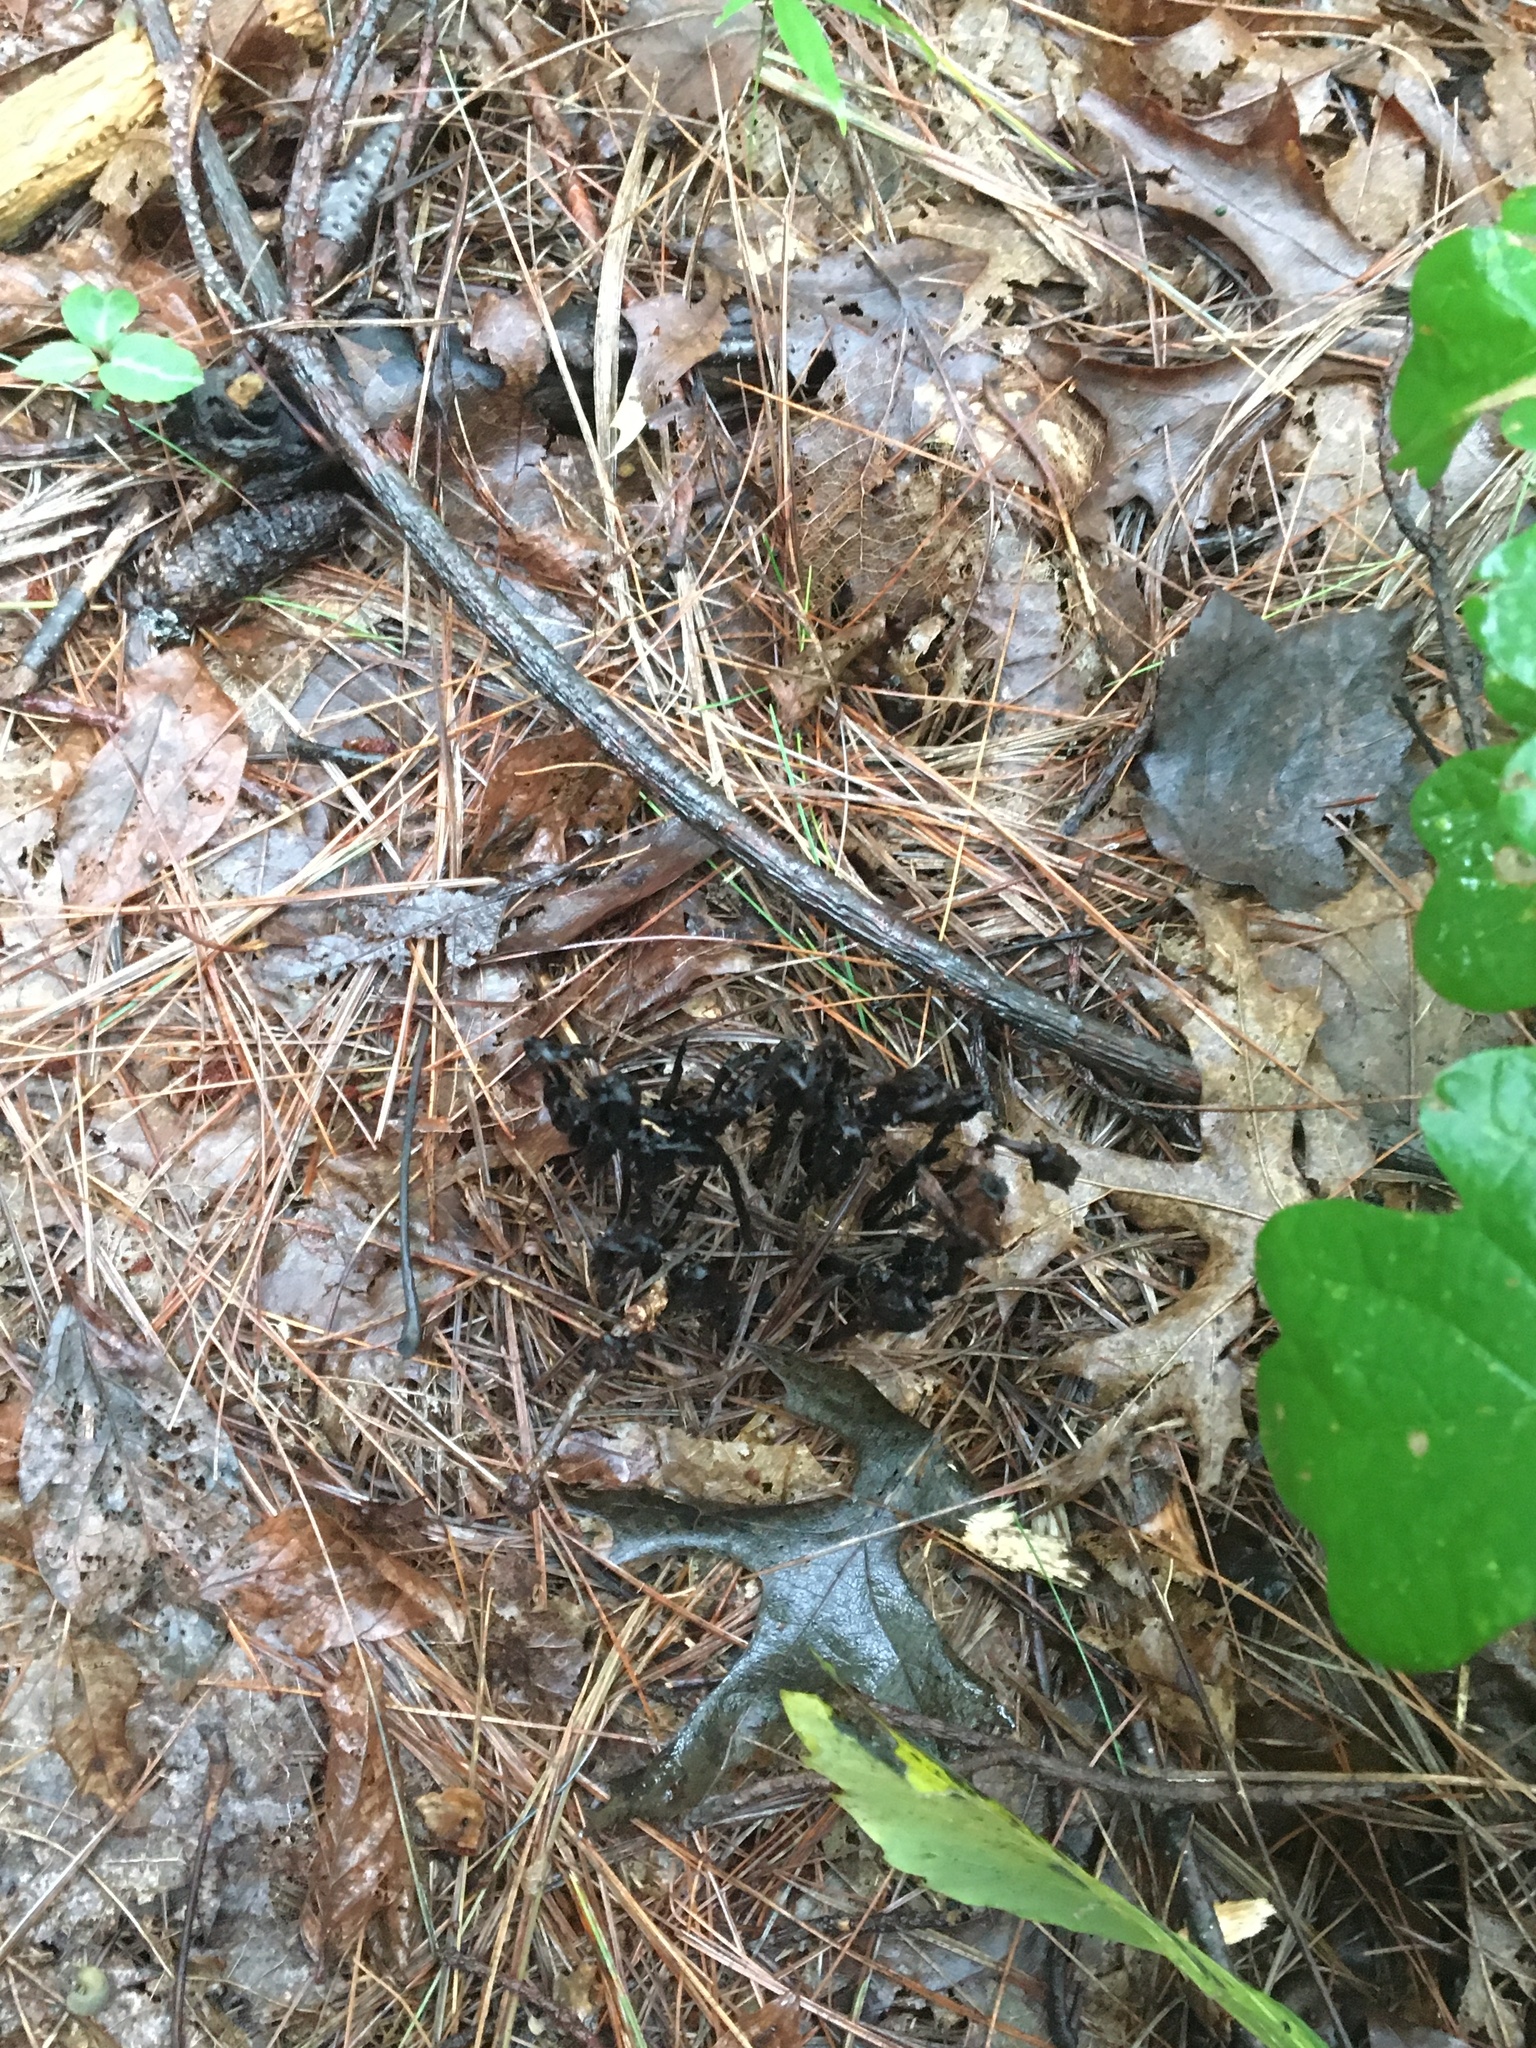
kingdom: Plantae
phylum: Tracheophyta
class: Magnoliopsida
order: Ericales
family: Ericaceae
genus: Monotropa
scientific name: Monotropa uniflora
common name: Convulsion root
